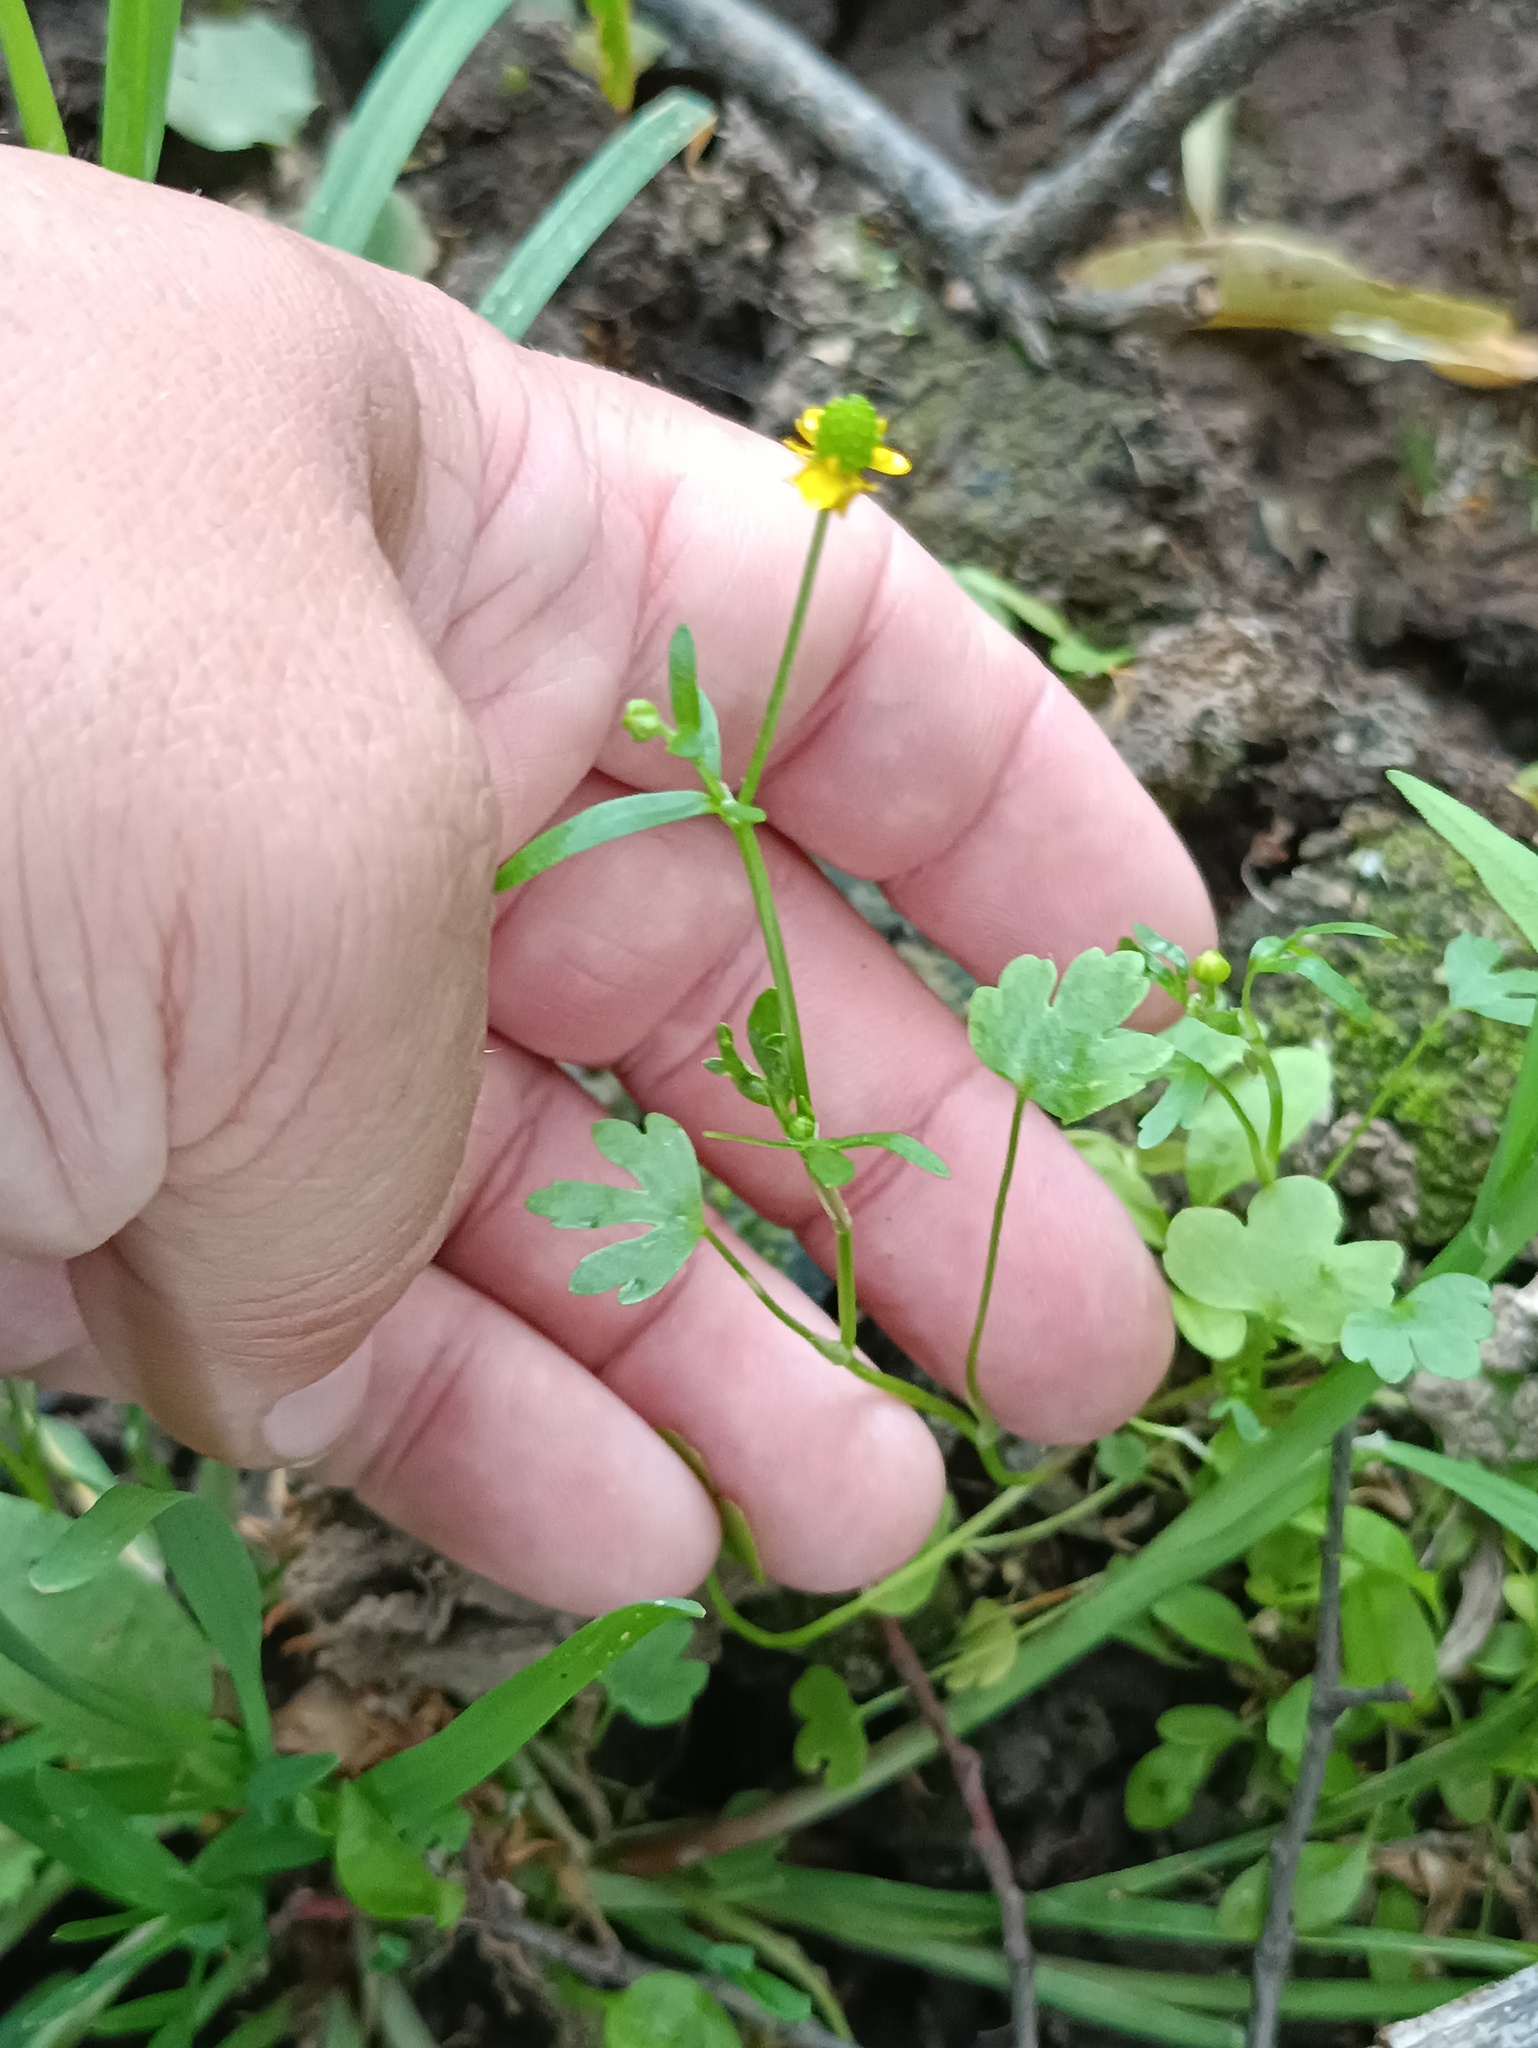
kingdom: Plantae
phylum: Tracheophyta
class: Magnoliopsida
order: Ranunculales
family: Ranunculaceae
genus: Ranunculus
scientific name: Ranunculus sceleratus
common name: Celery-leaved buttercup
